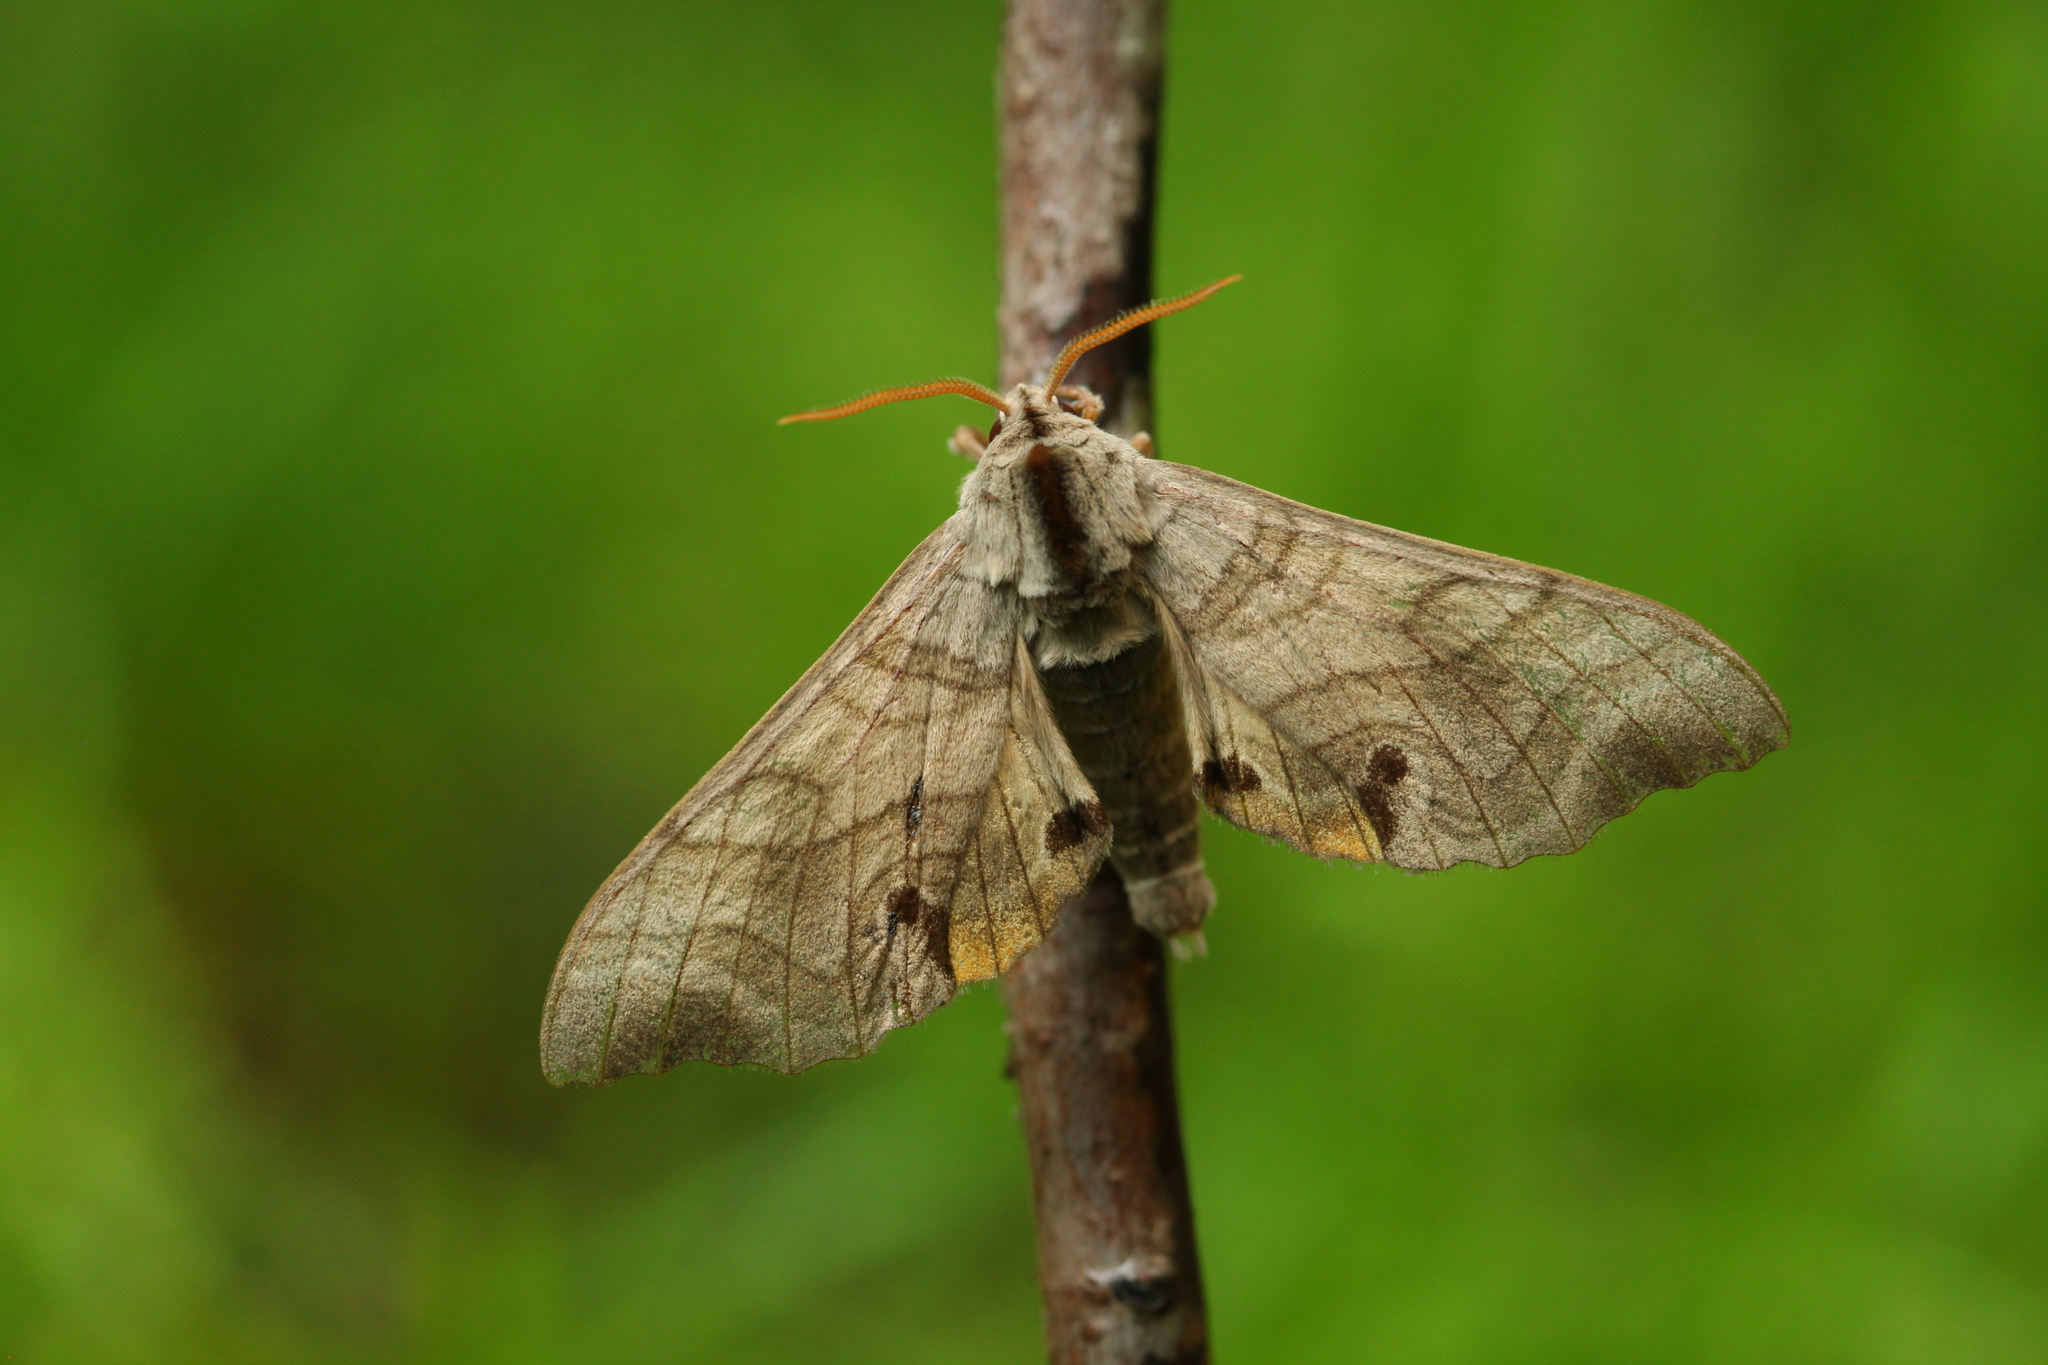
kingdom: Animalia
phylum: Arthropoda
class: Insecta
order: Lepidoptera
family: Sphingidae
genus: Marumba
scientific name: Marumba maackii
